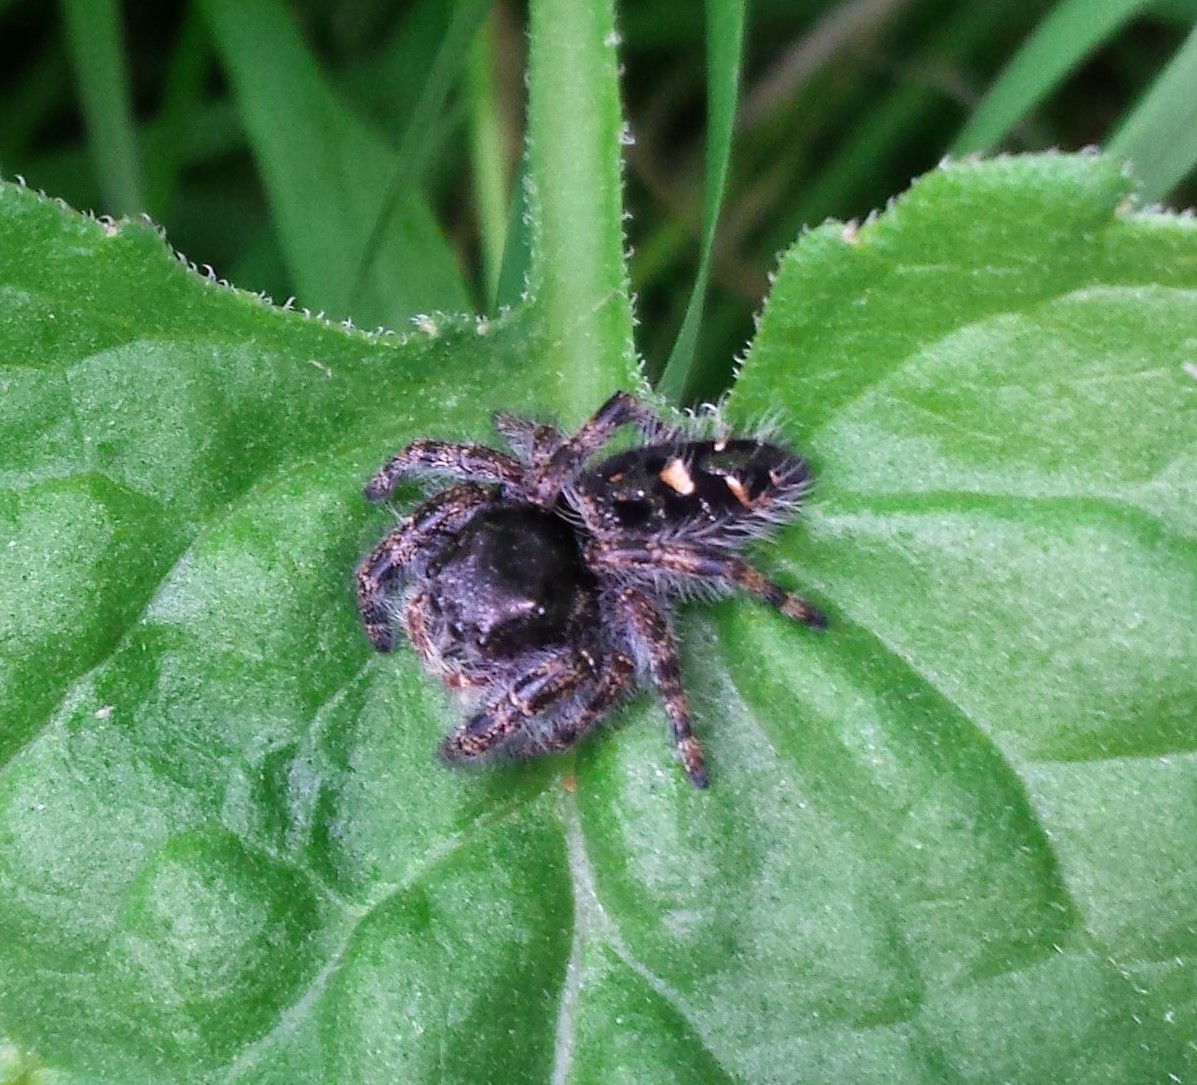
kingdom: Animalia
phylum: Arthropoda
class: Arachnida
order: Araneae
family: Salticidae
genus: Phidippus
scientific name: Phidippus audax
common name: Bold jumper
